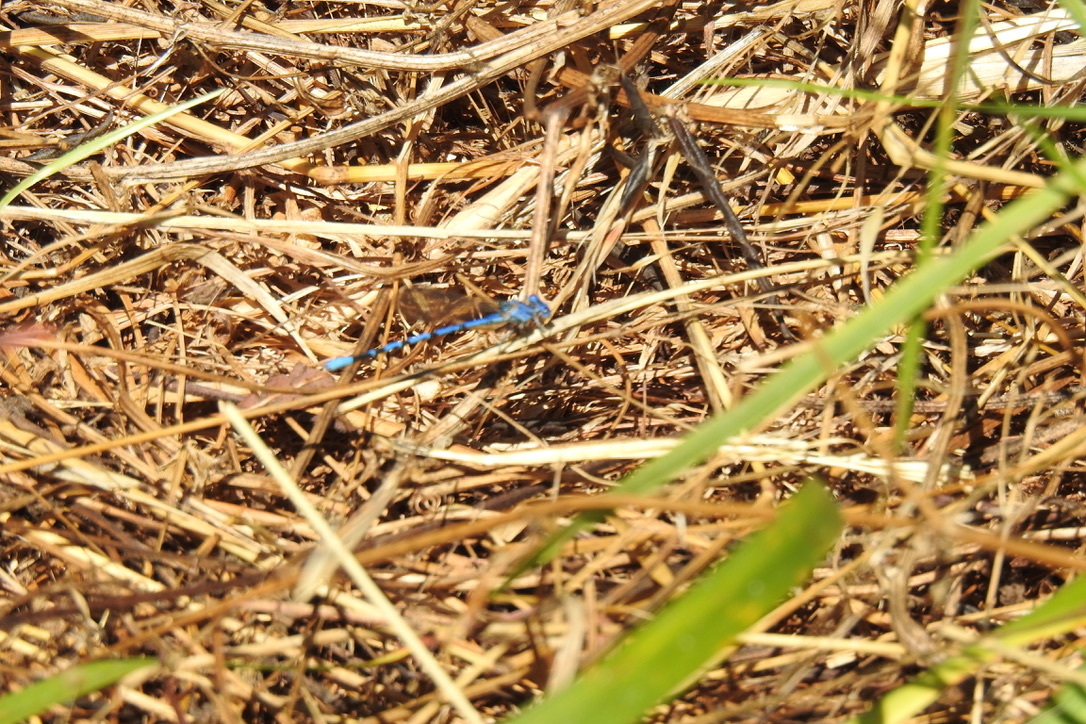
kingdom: Animalia
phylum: Arthropoda
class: Insecta
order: Odonata
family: Coenagrionidae
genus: Argia
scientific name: Argia vivida
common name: Vivid dancer
